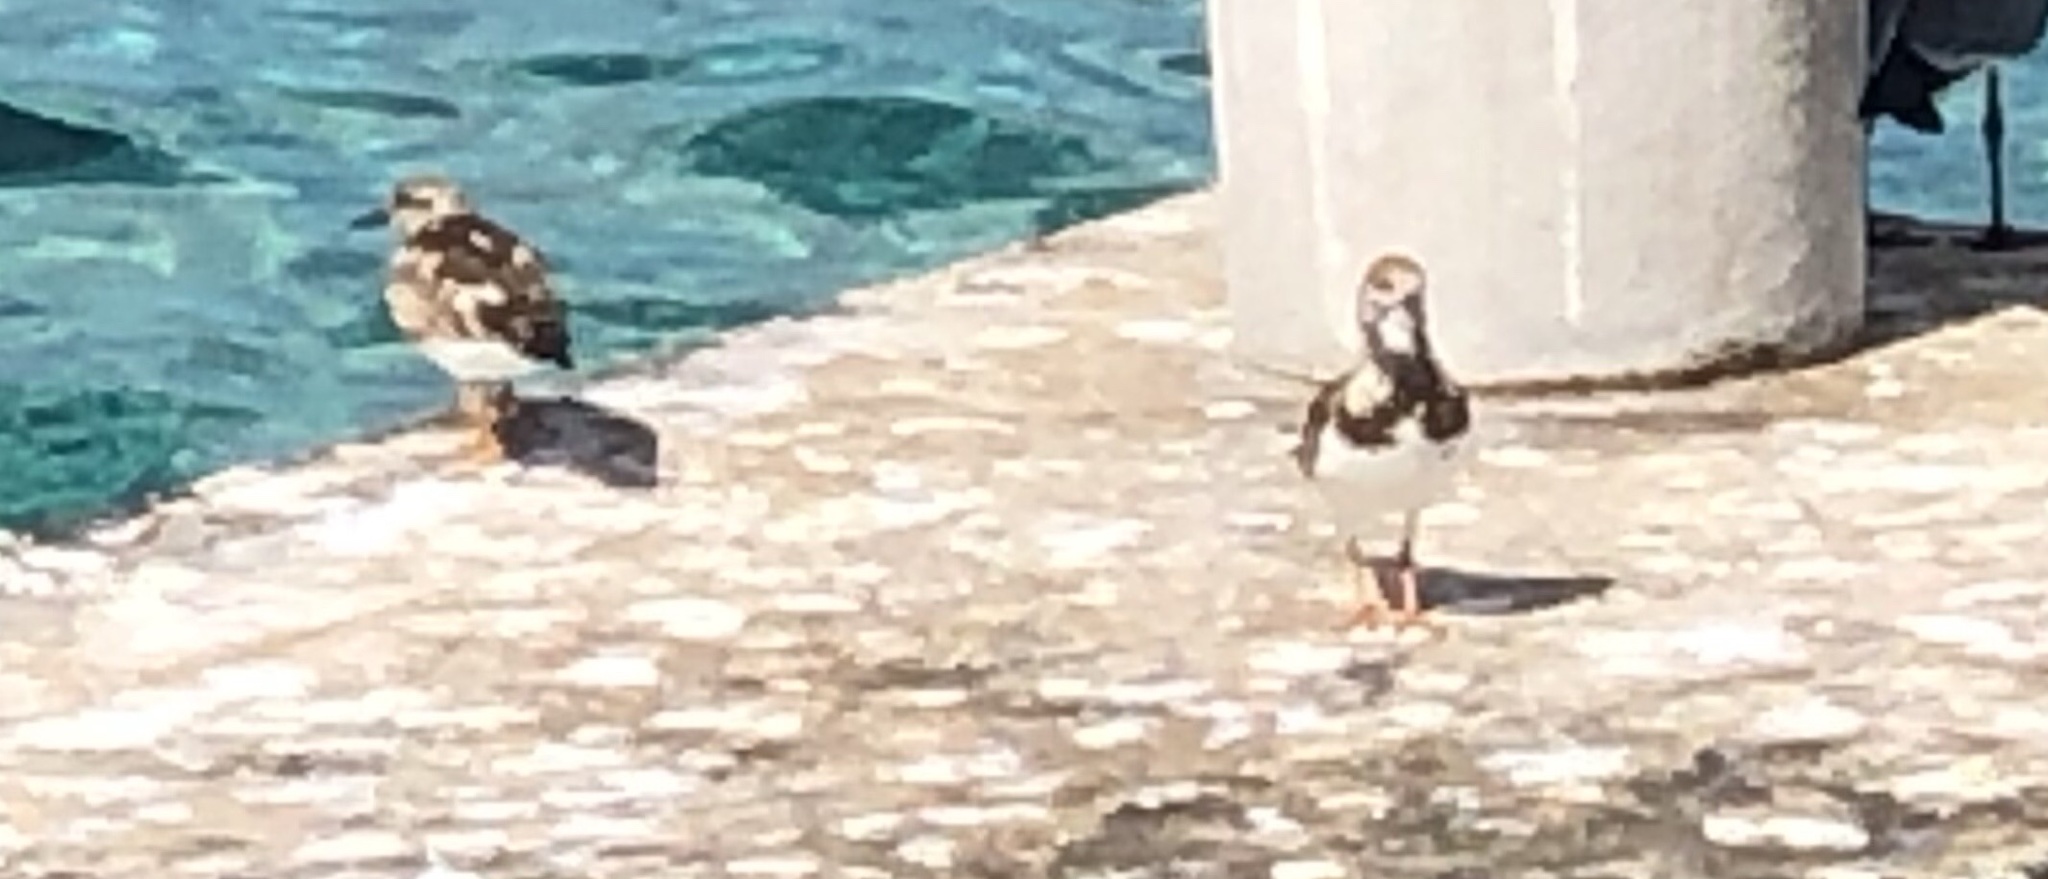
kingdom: Animalia
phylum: Chordata
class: Aves
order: Charadriiformes
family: Scolopacidae
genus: Arenaria
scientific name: Arenaria interpres
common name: Ruddy turnstone
